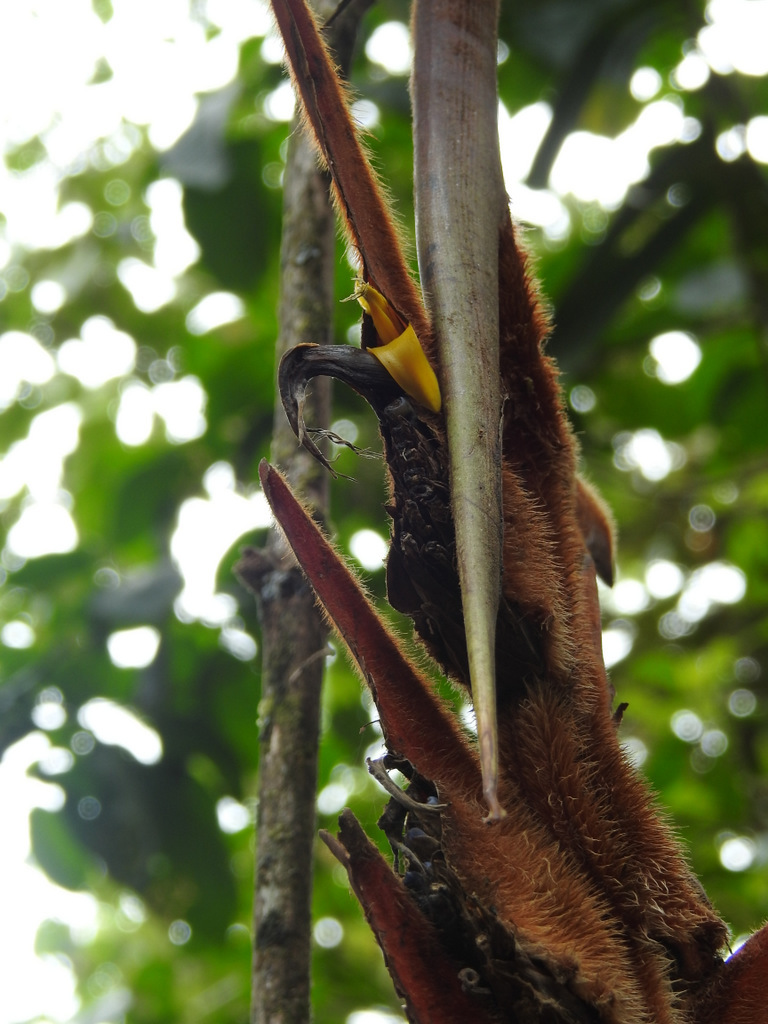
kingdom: Plantae
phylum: Tracheophyta
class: Liliopsida
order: Zingiberales
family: Heliconiaceae
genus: Heliconia
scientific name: Heliconia vellerigera
